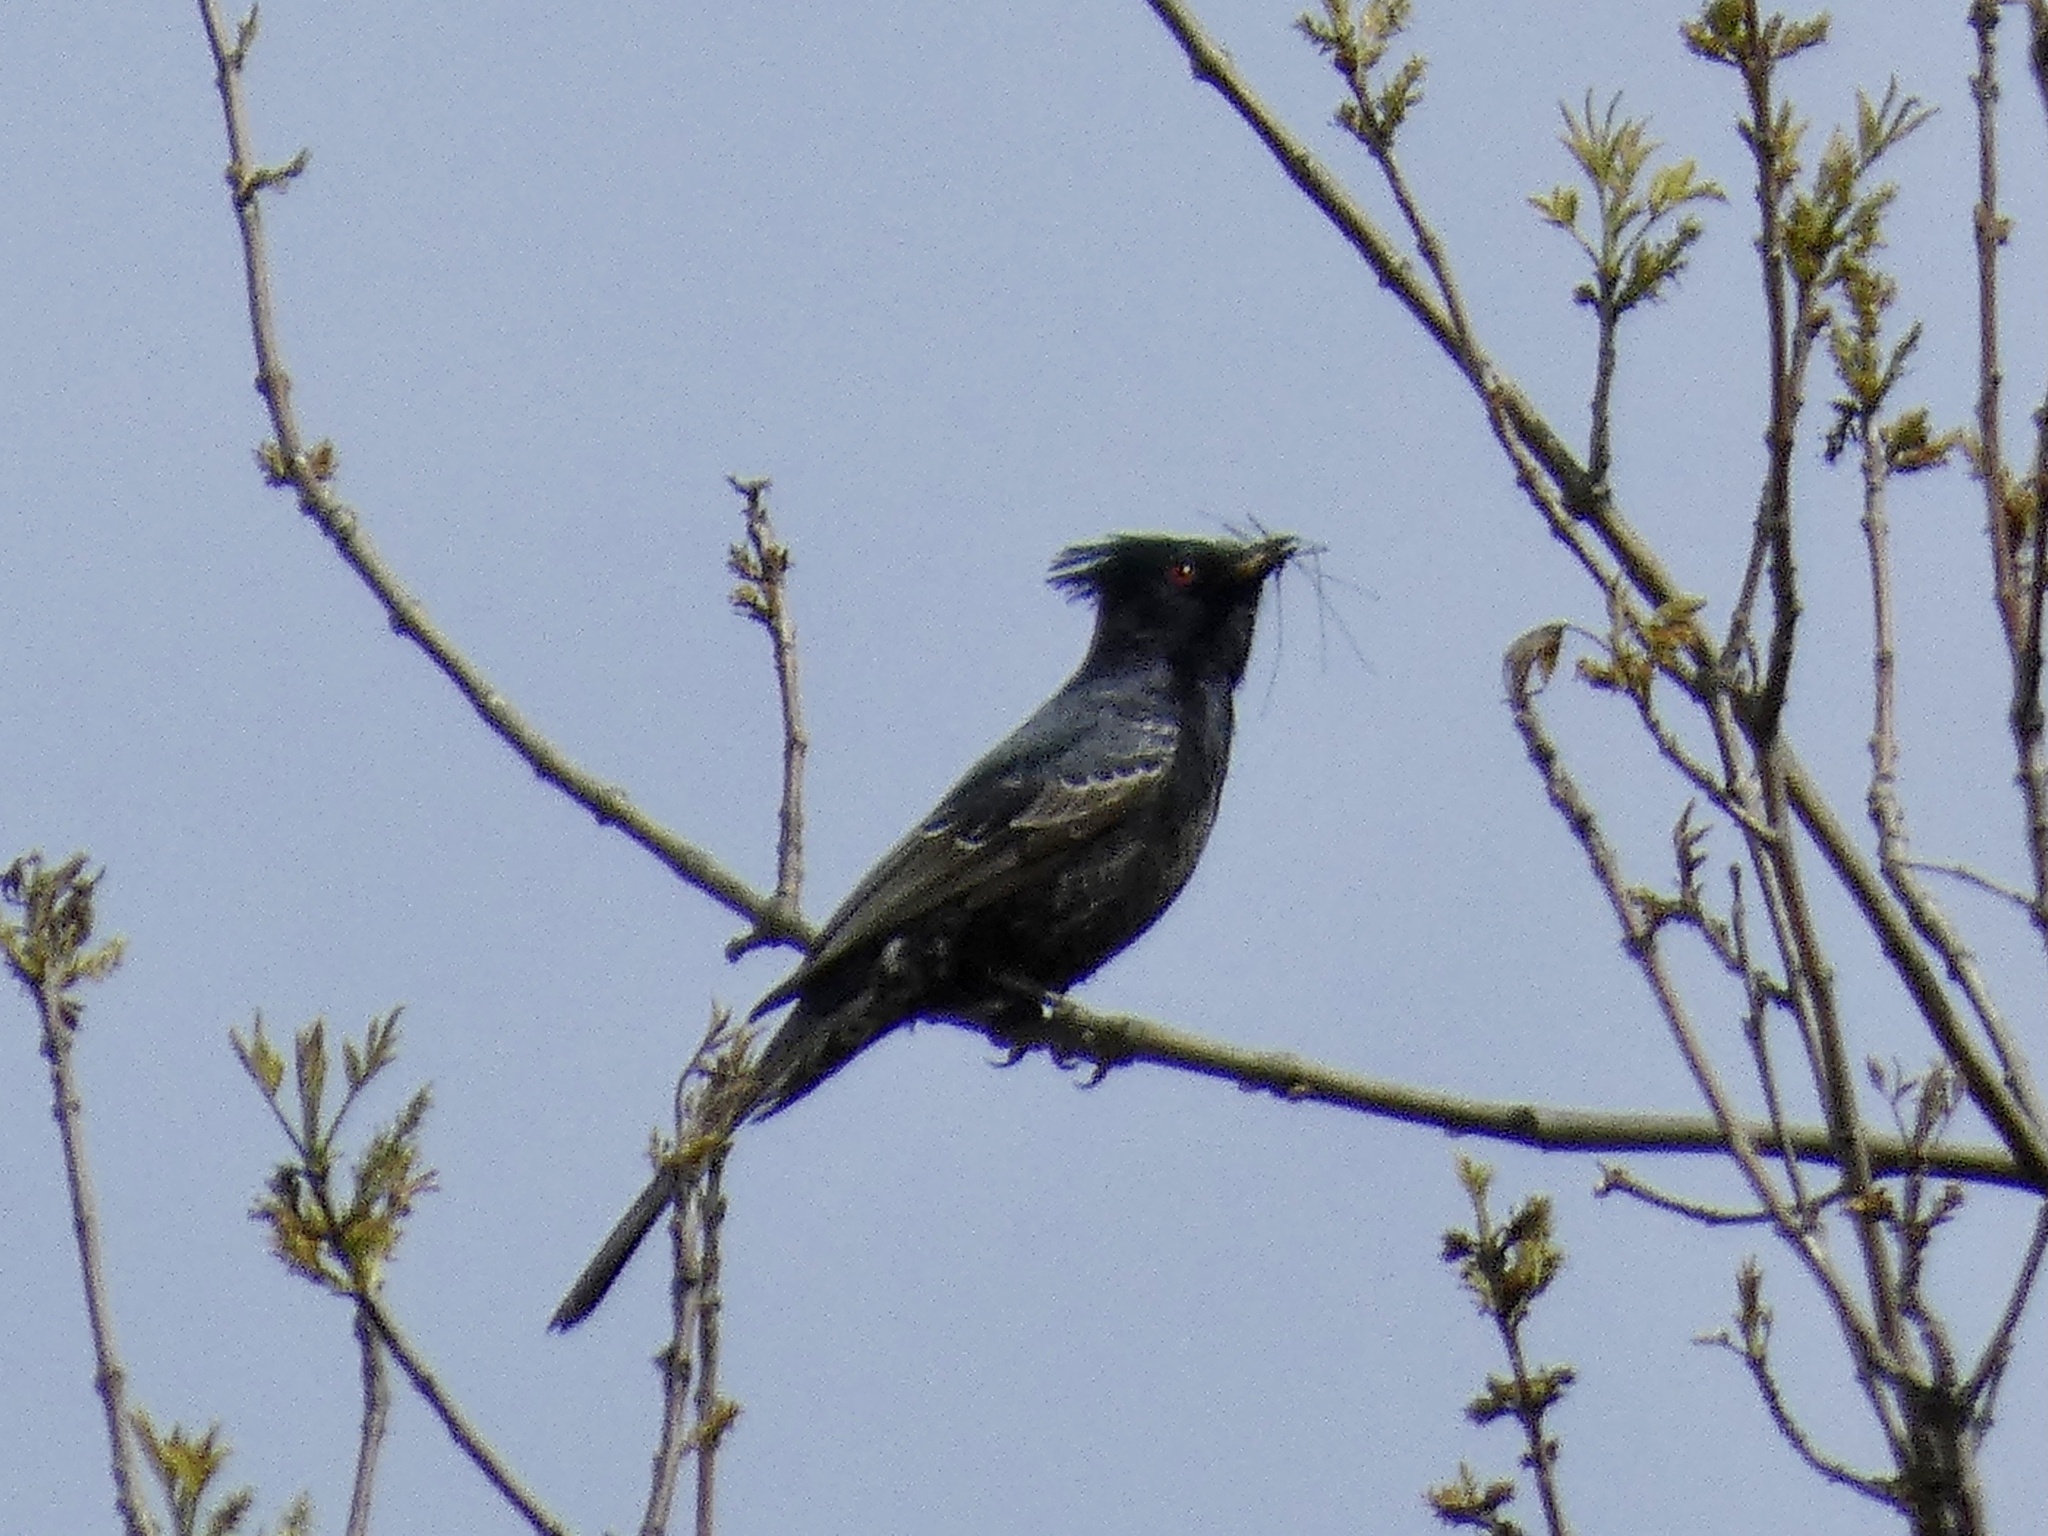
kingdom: Animalia
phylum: Chordata
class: Aves
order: Passeriformes
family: Ptilogonatidae
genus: Phainopepla
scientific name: Phainopepla nitens
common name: Phainopepla
